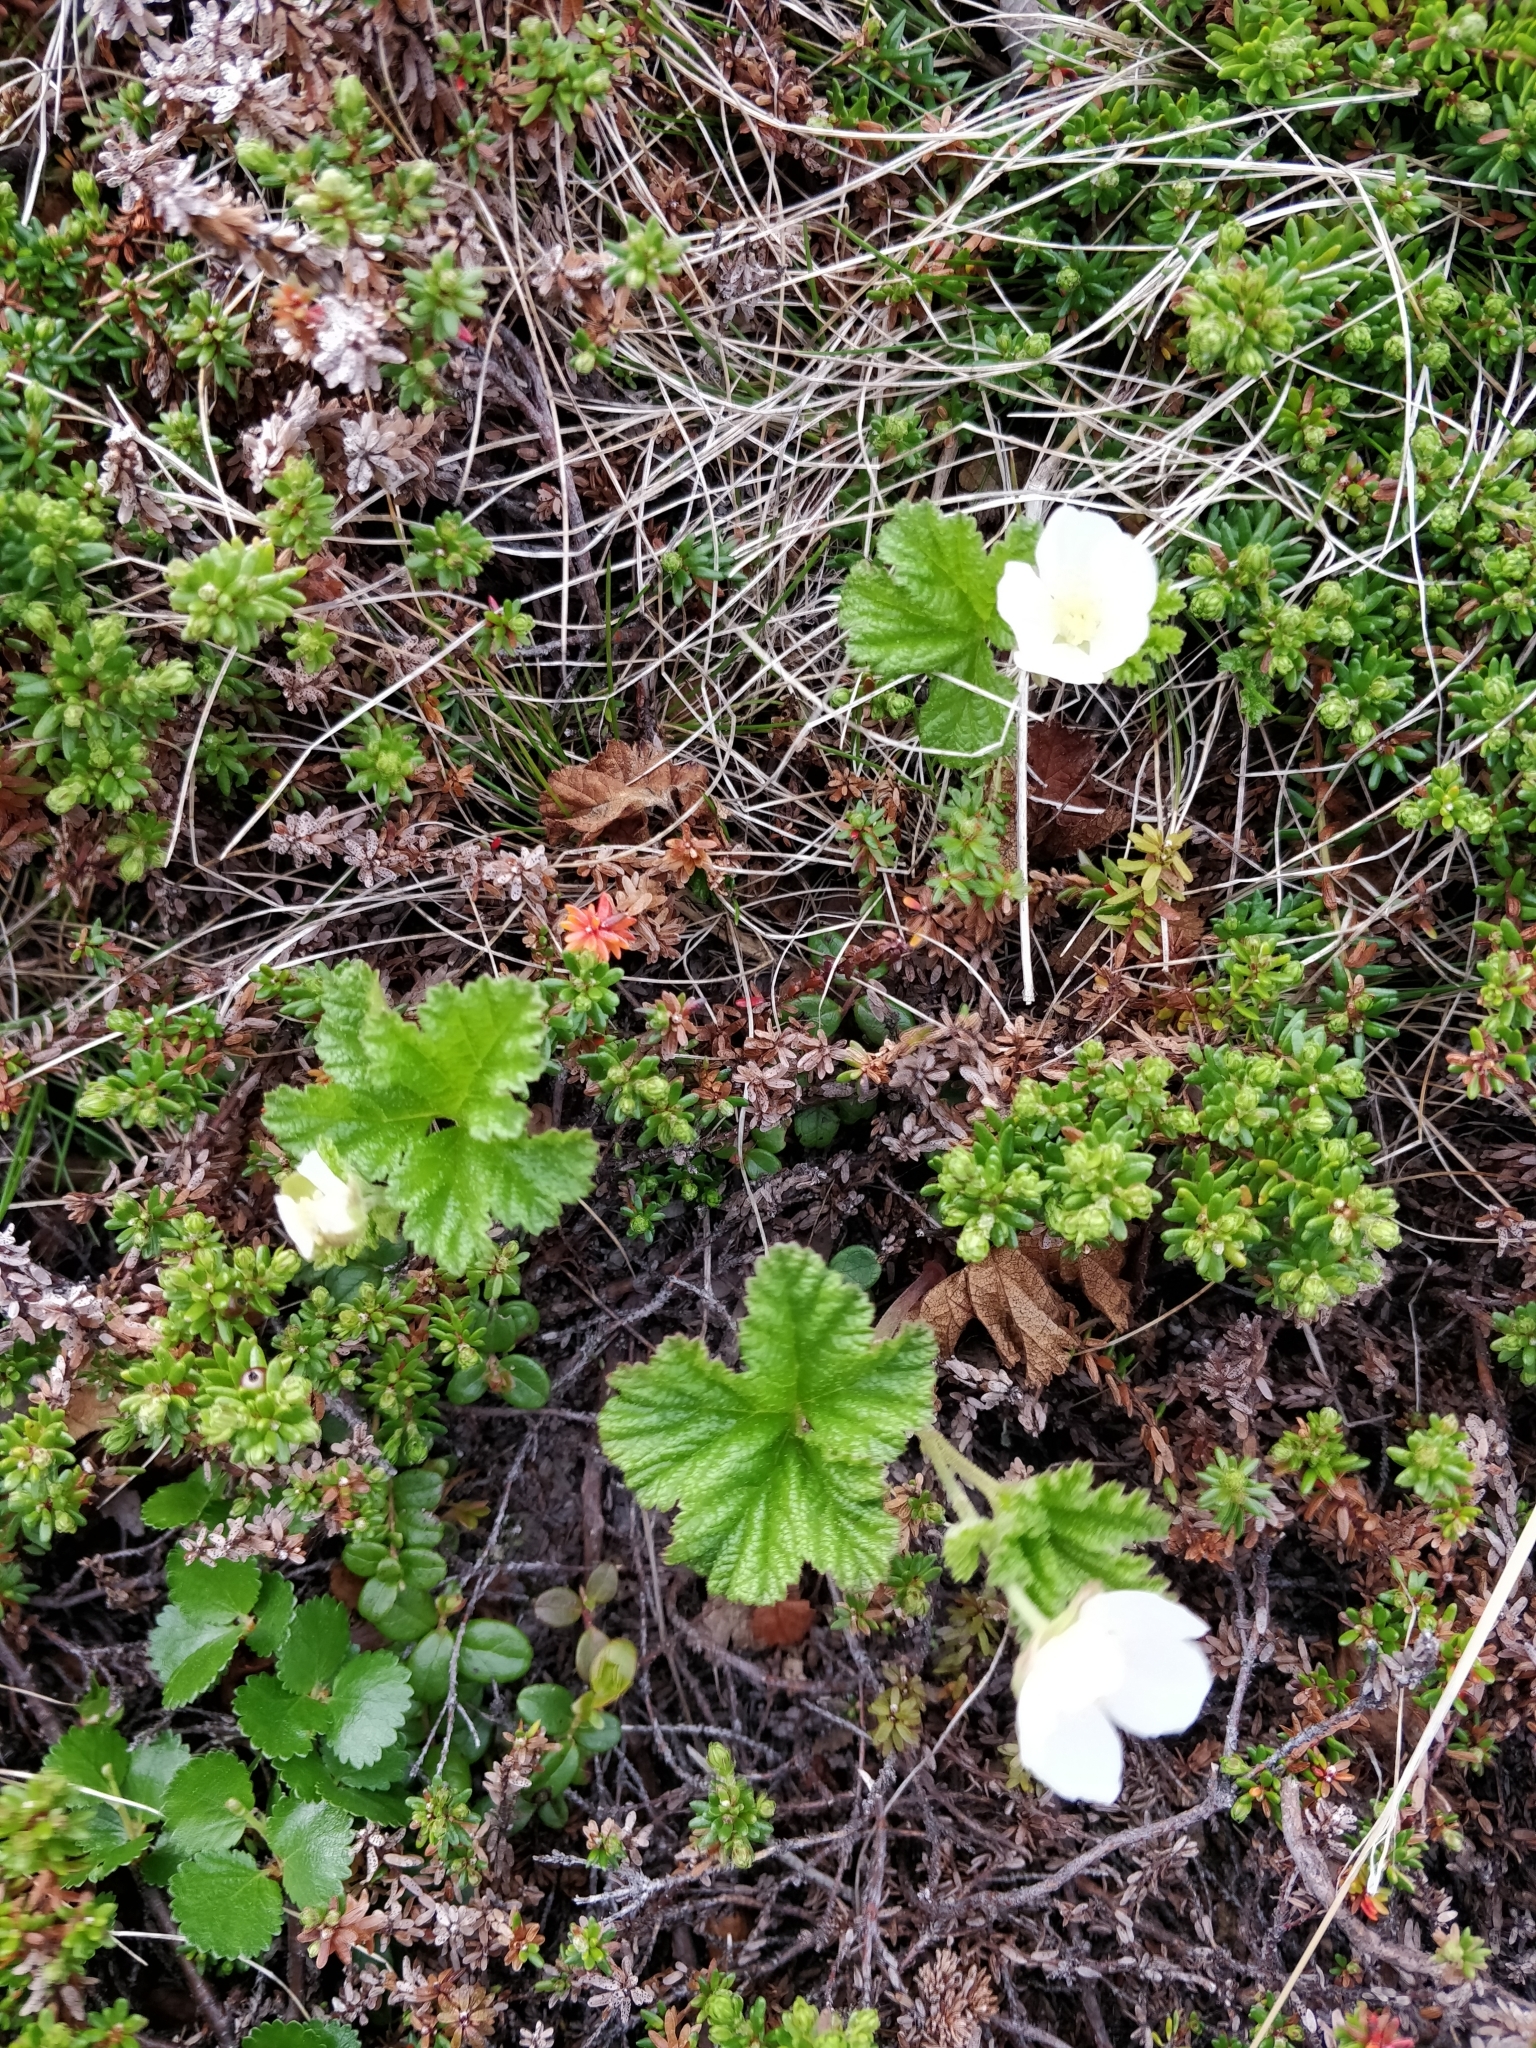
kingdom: Plantae
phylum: Tracheophyta
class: Magnoliopsida
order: Rosales
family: Rosaceae
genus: Rubus
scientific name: Rubus chamaemorus
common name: Cloudberry
